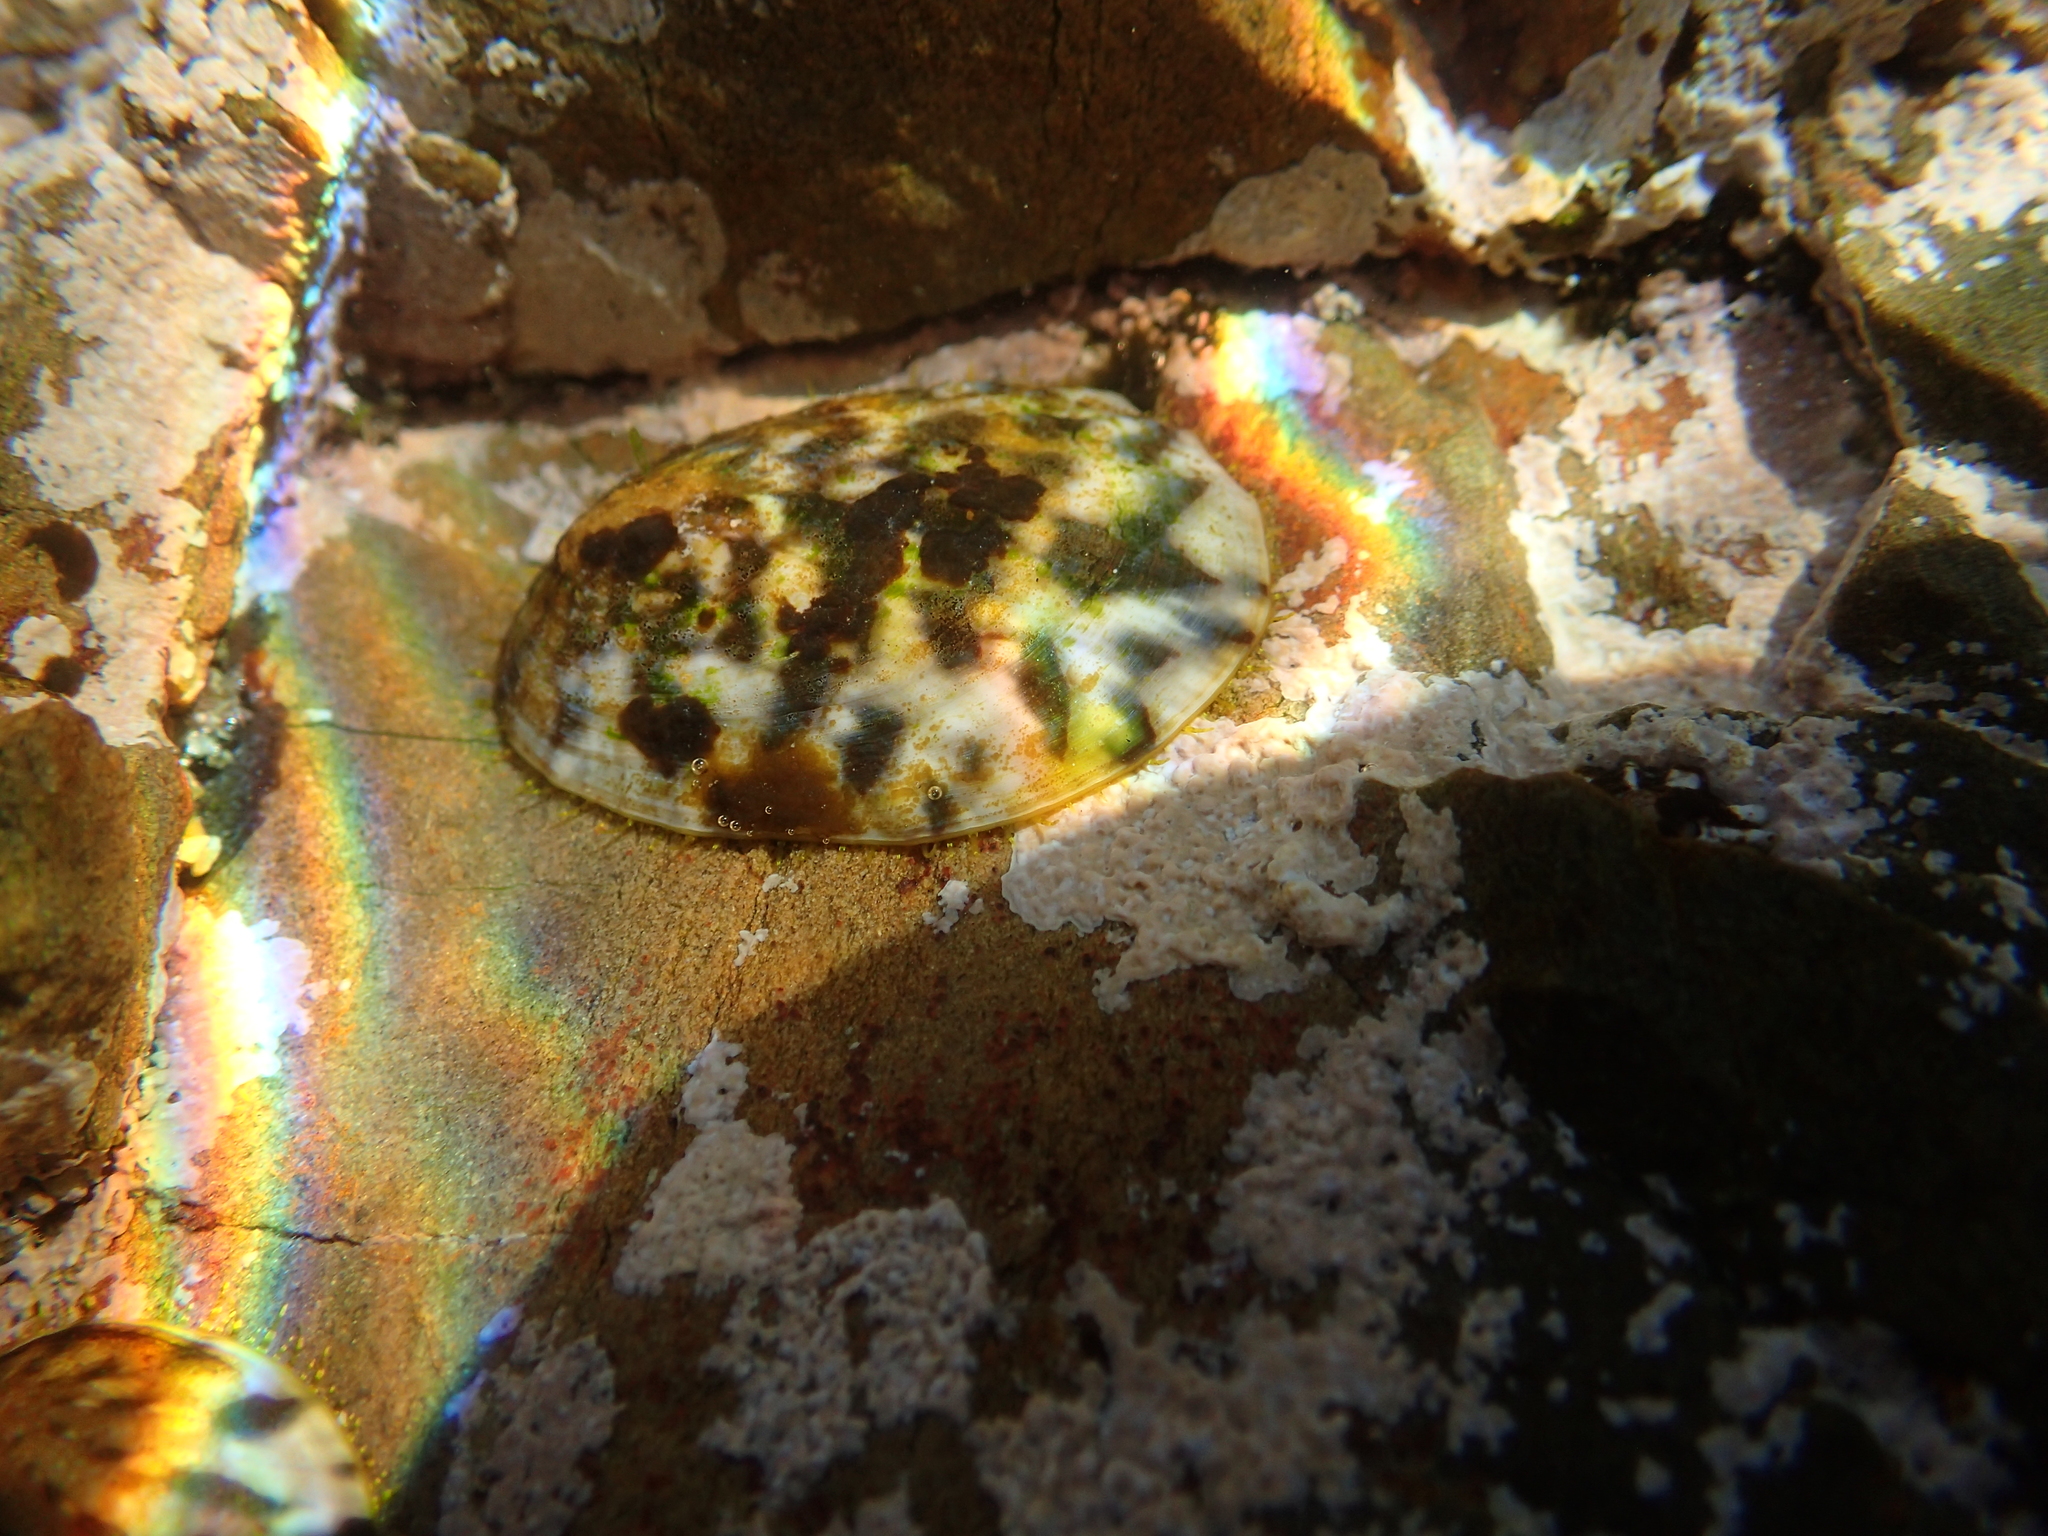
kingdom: Animalia
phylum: Mollusca
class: Gastropoda
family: Nacellidae
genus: Cellana
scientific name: Cellana radians
